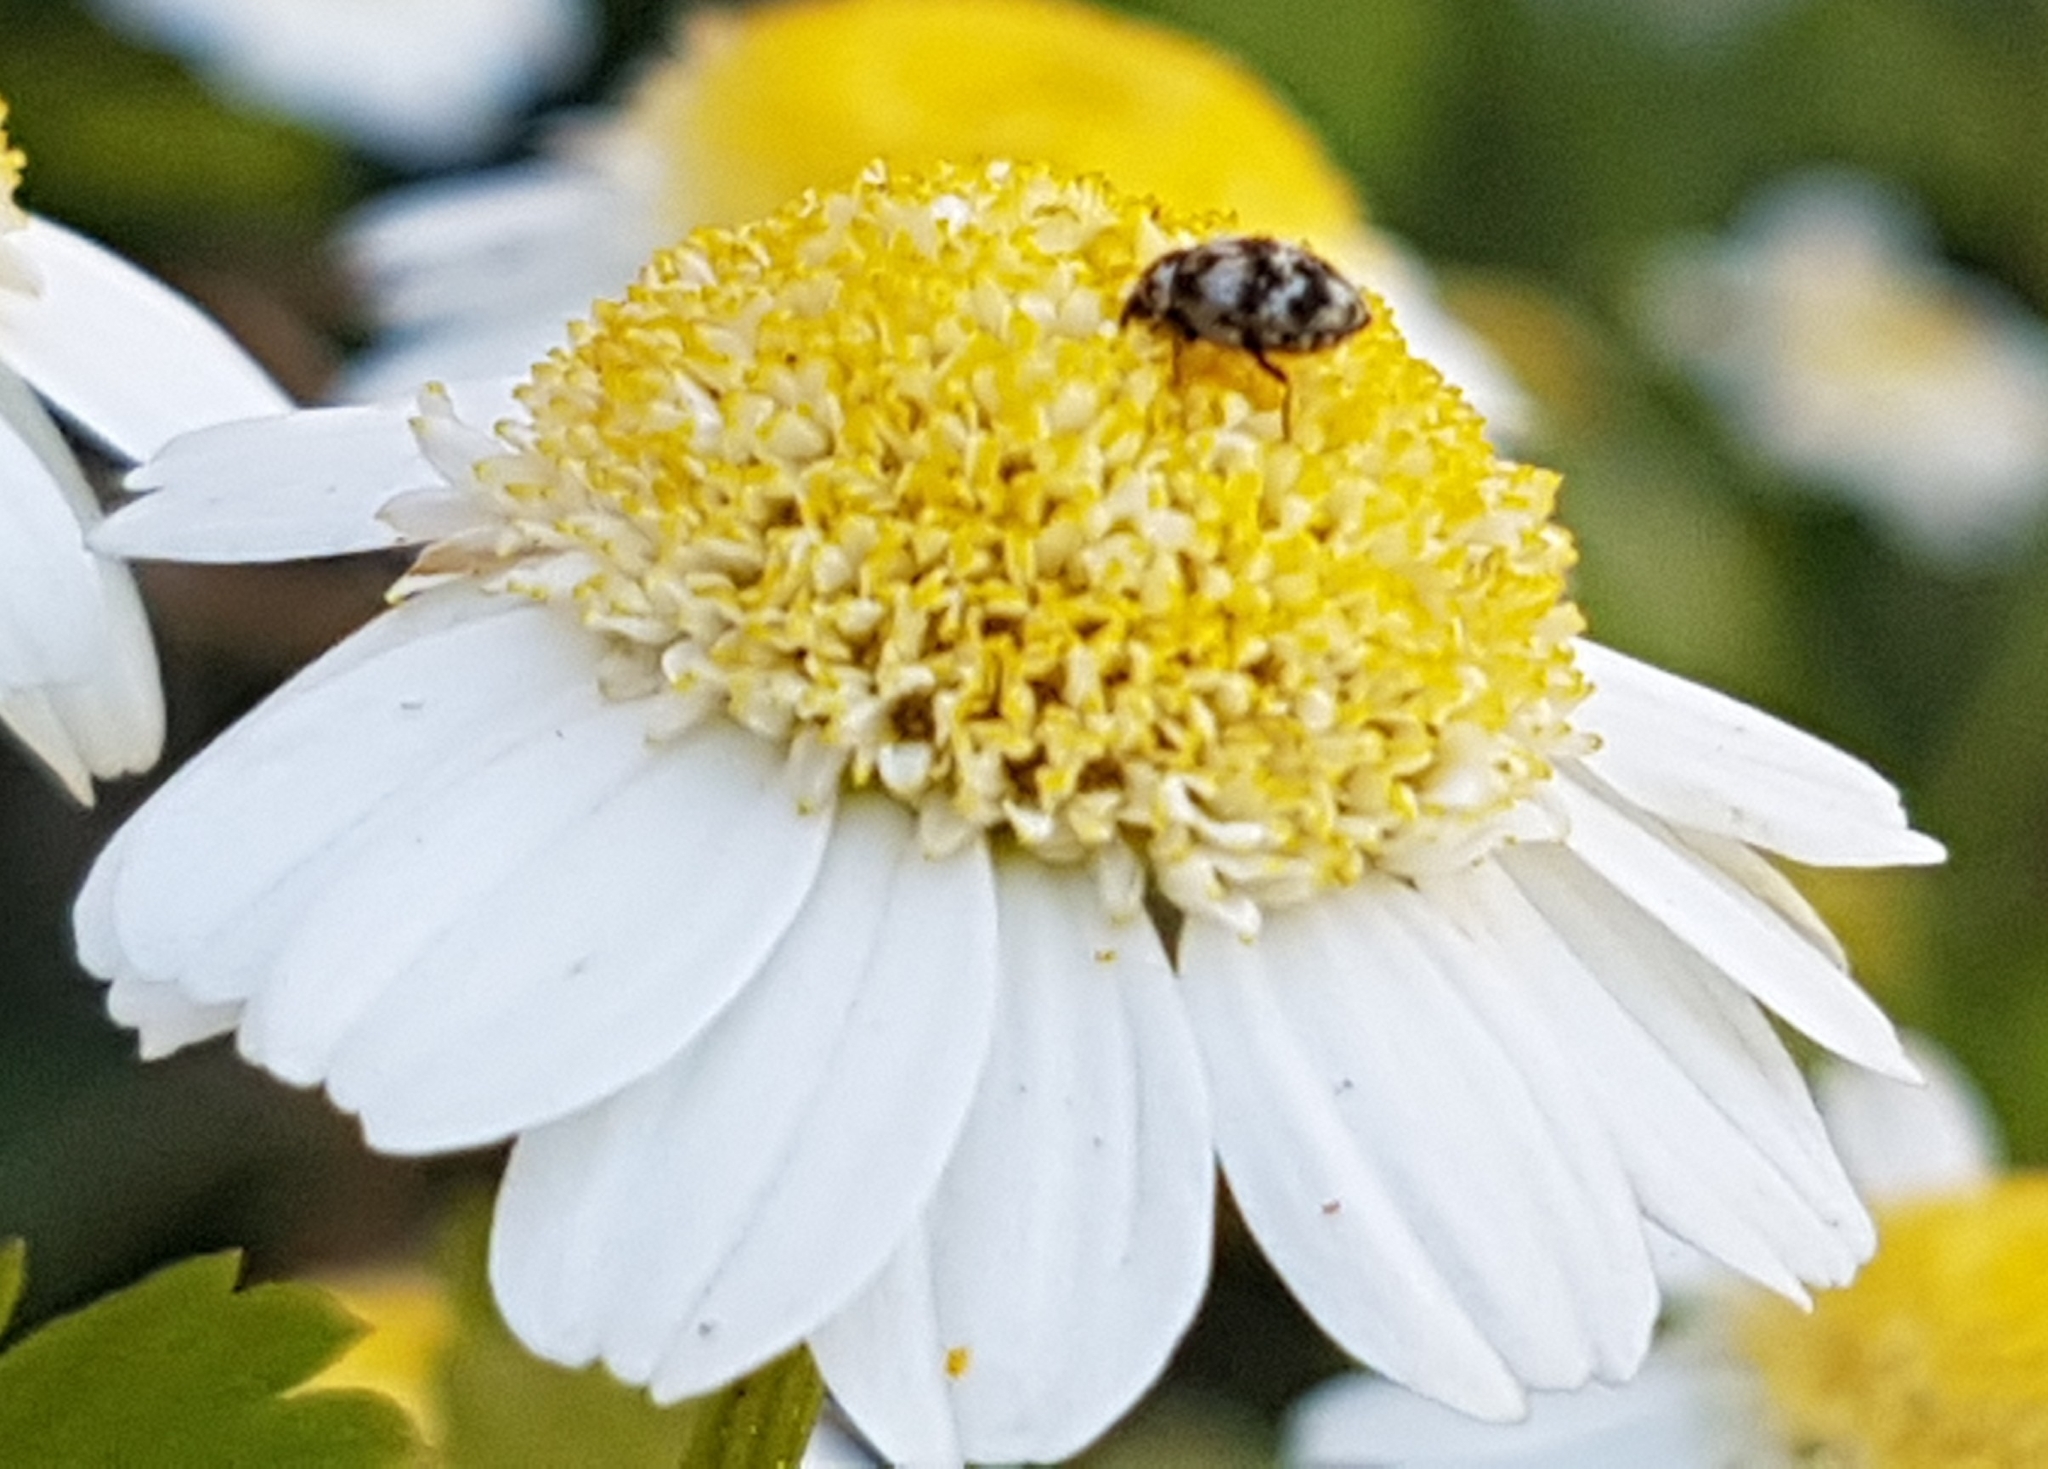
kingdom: Animalia
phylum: Arthropoda
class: Insecta
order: Coleoptera
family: Dermestidae
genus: Anthrenus
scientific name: Anthrenus verbasci
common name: Varied carpet beetle
